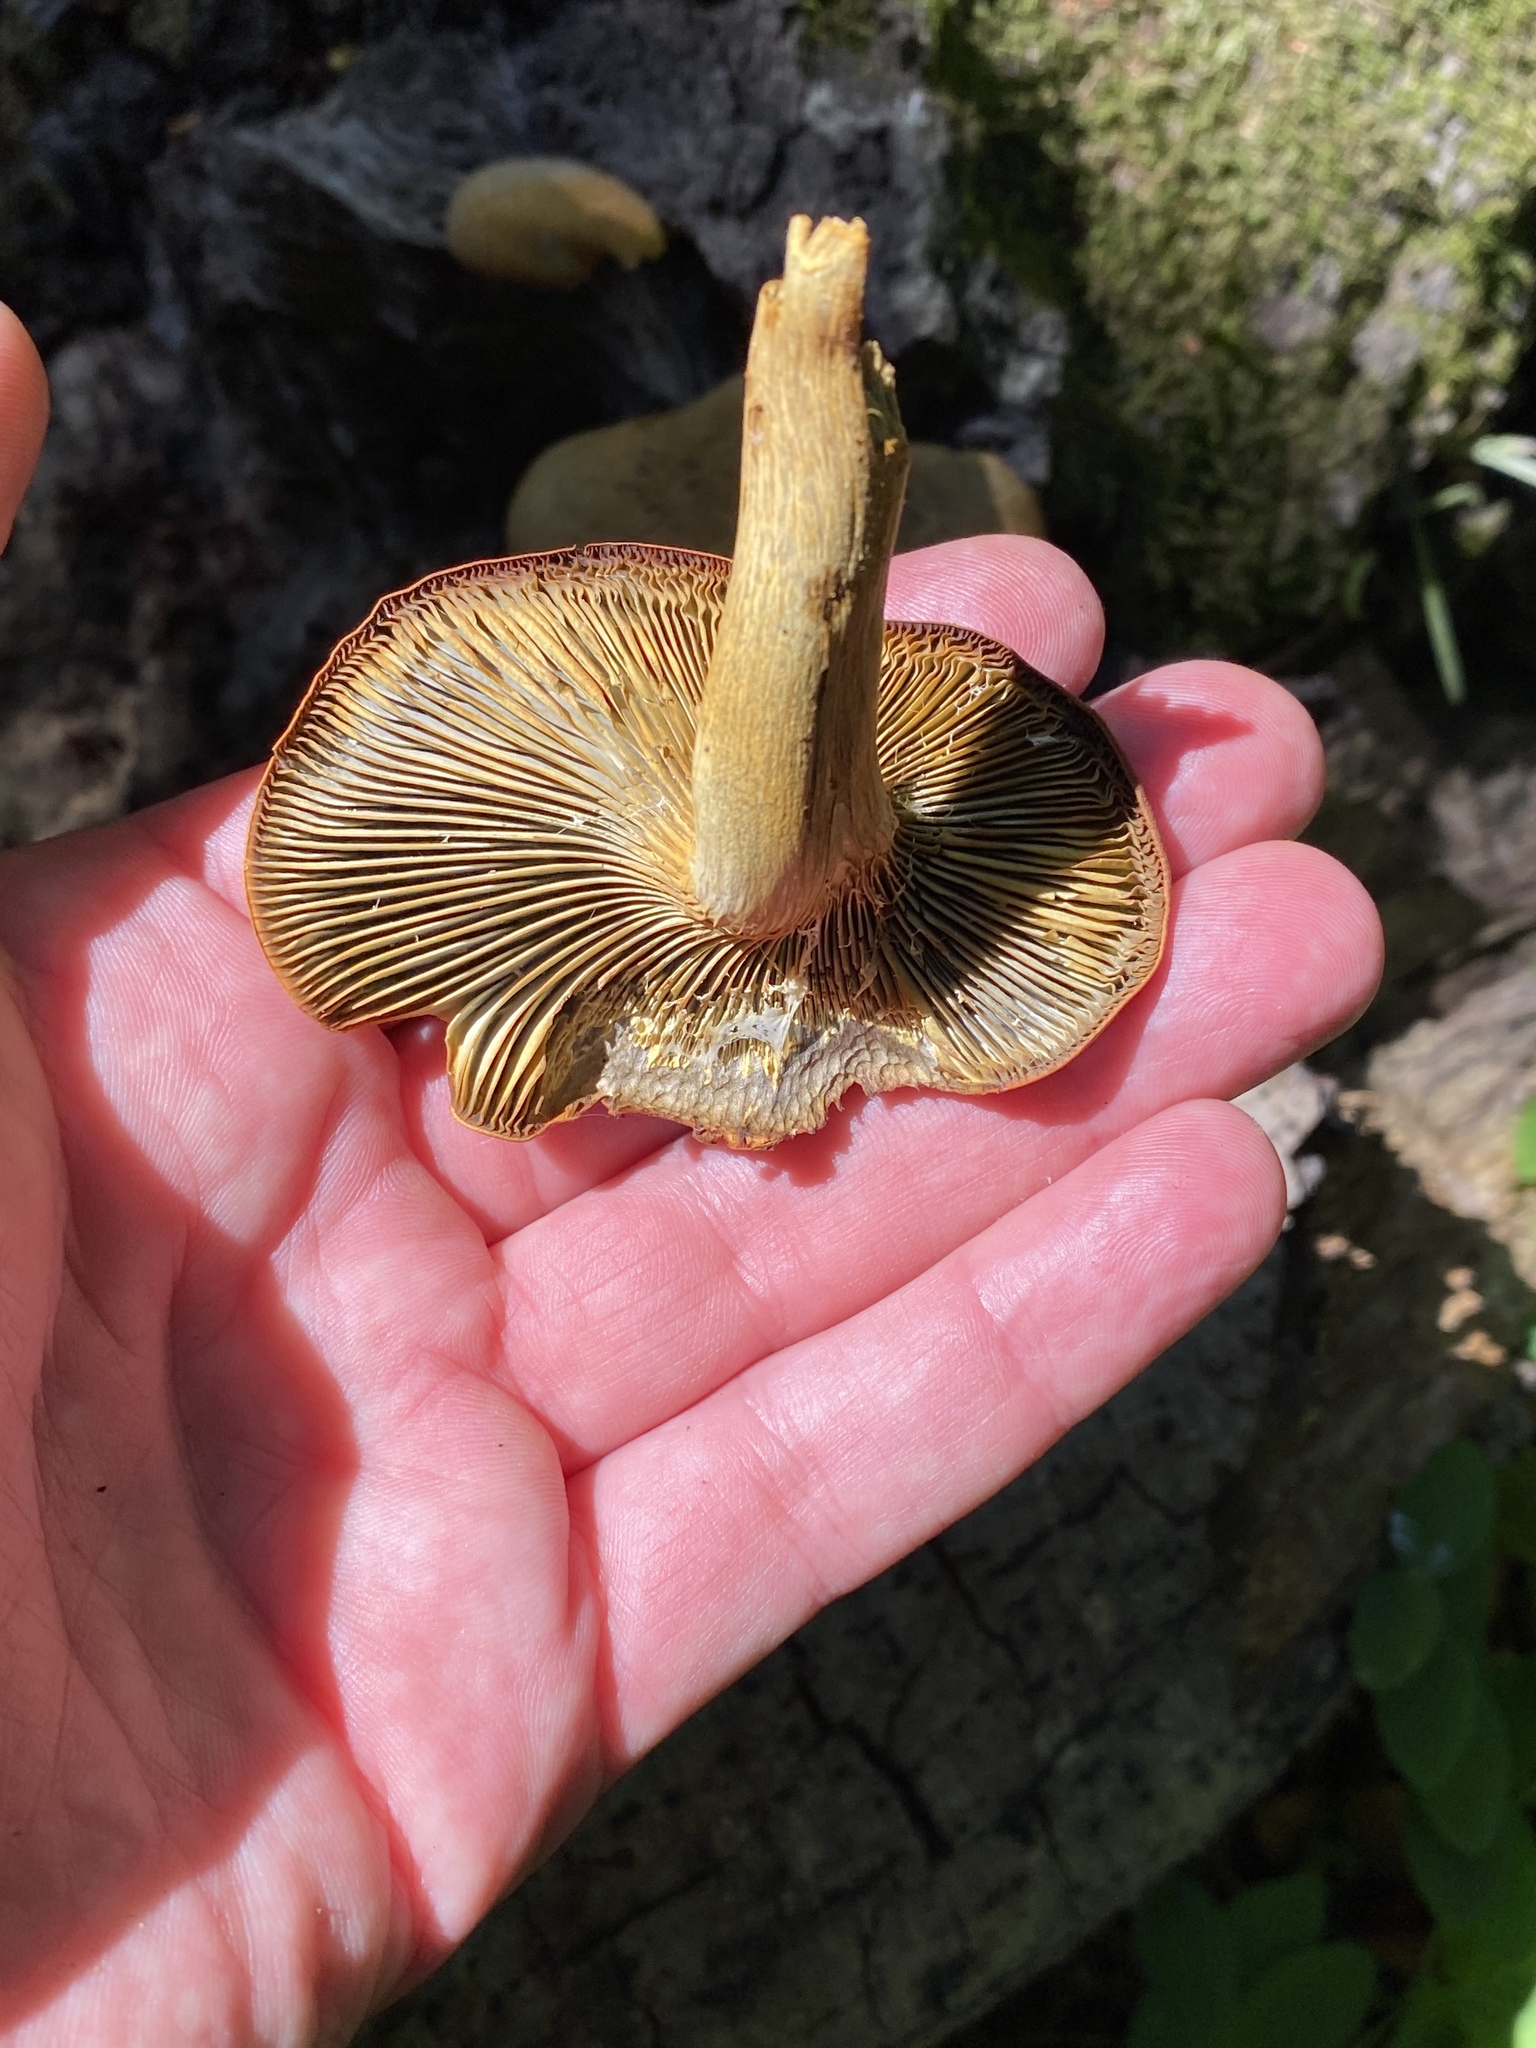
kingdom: Fungi
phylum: Basidiomycota
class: Agaricomycetes
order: Agaricales
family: Omphalotaceae
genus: Omphalotus
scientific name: Omphalotus olivascens
